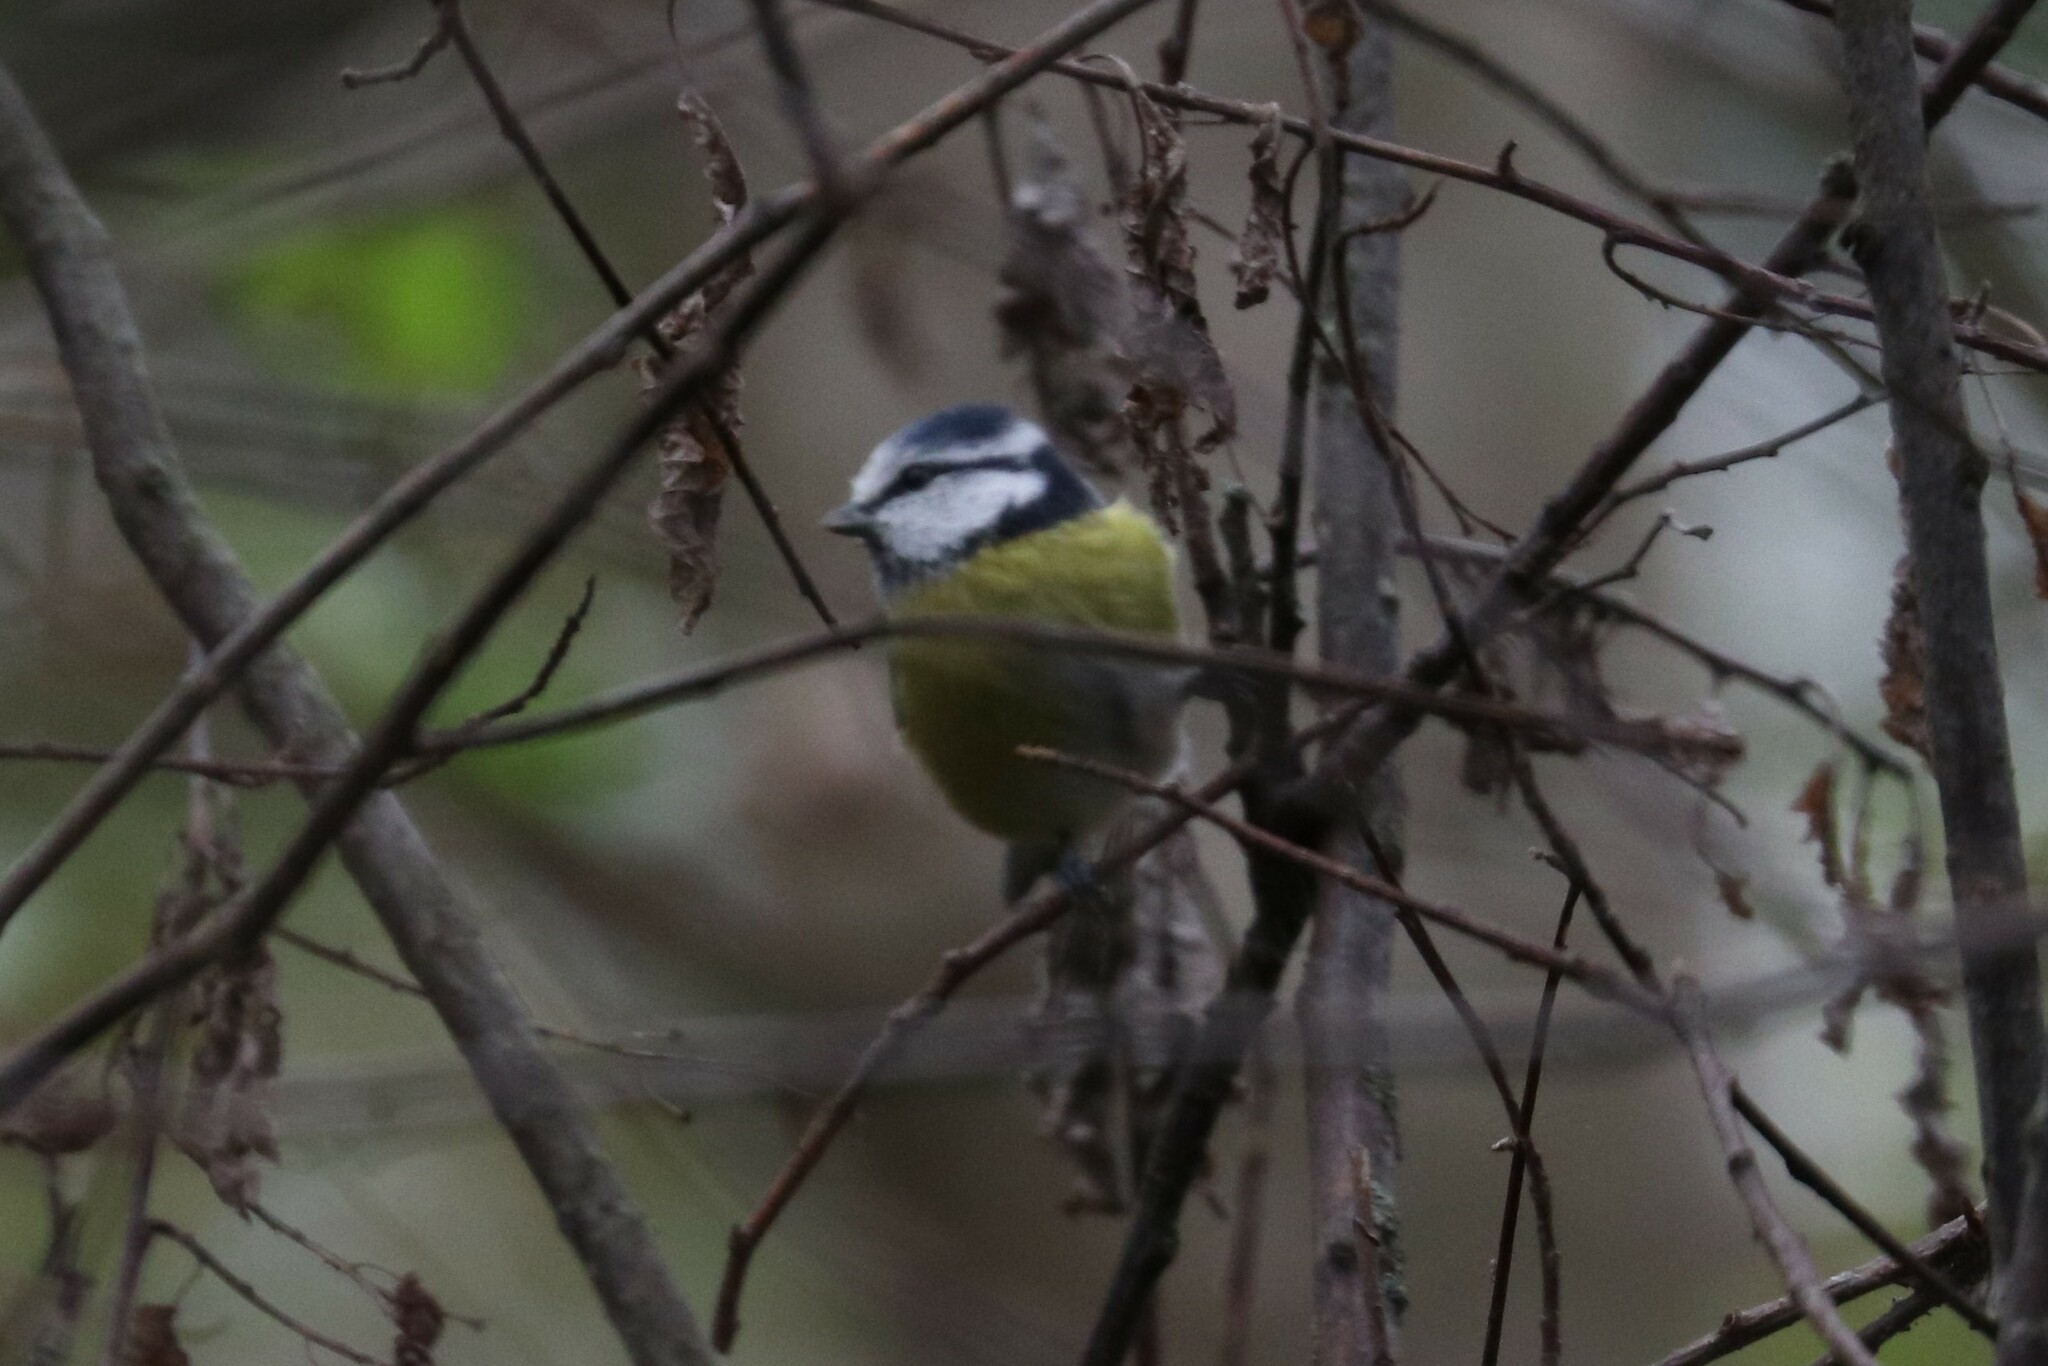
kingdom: Animalia
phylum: Chordata
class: Aves
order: Passeriformes
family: Paridae
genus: Cyanistes
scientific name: Cyanistes caeruleus
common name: Eurasian blue tit
